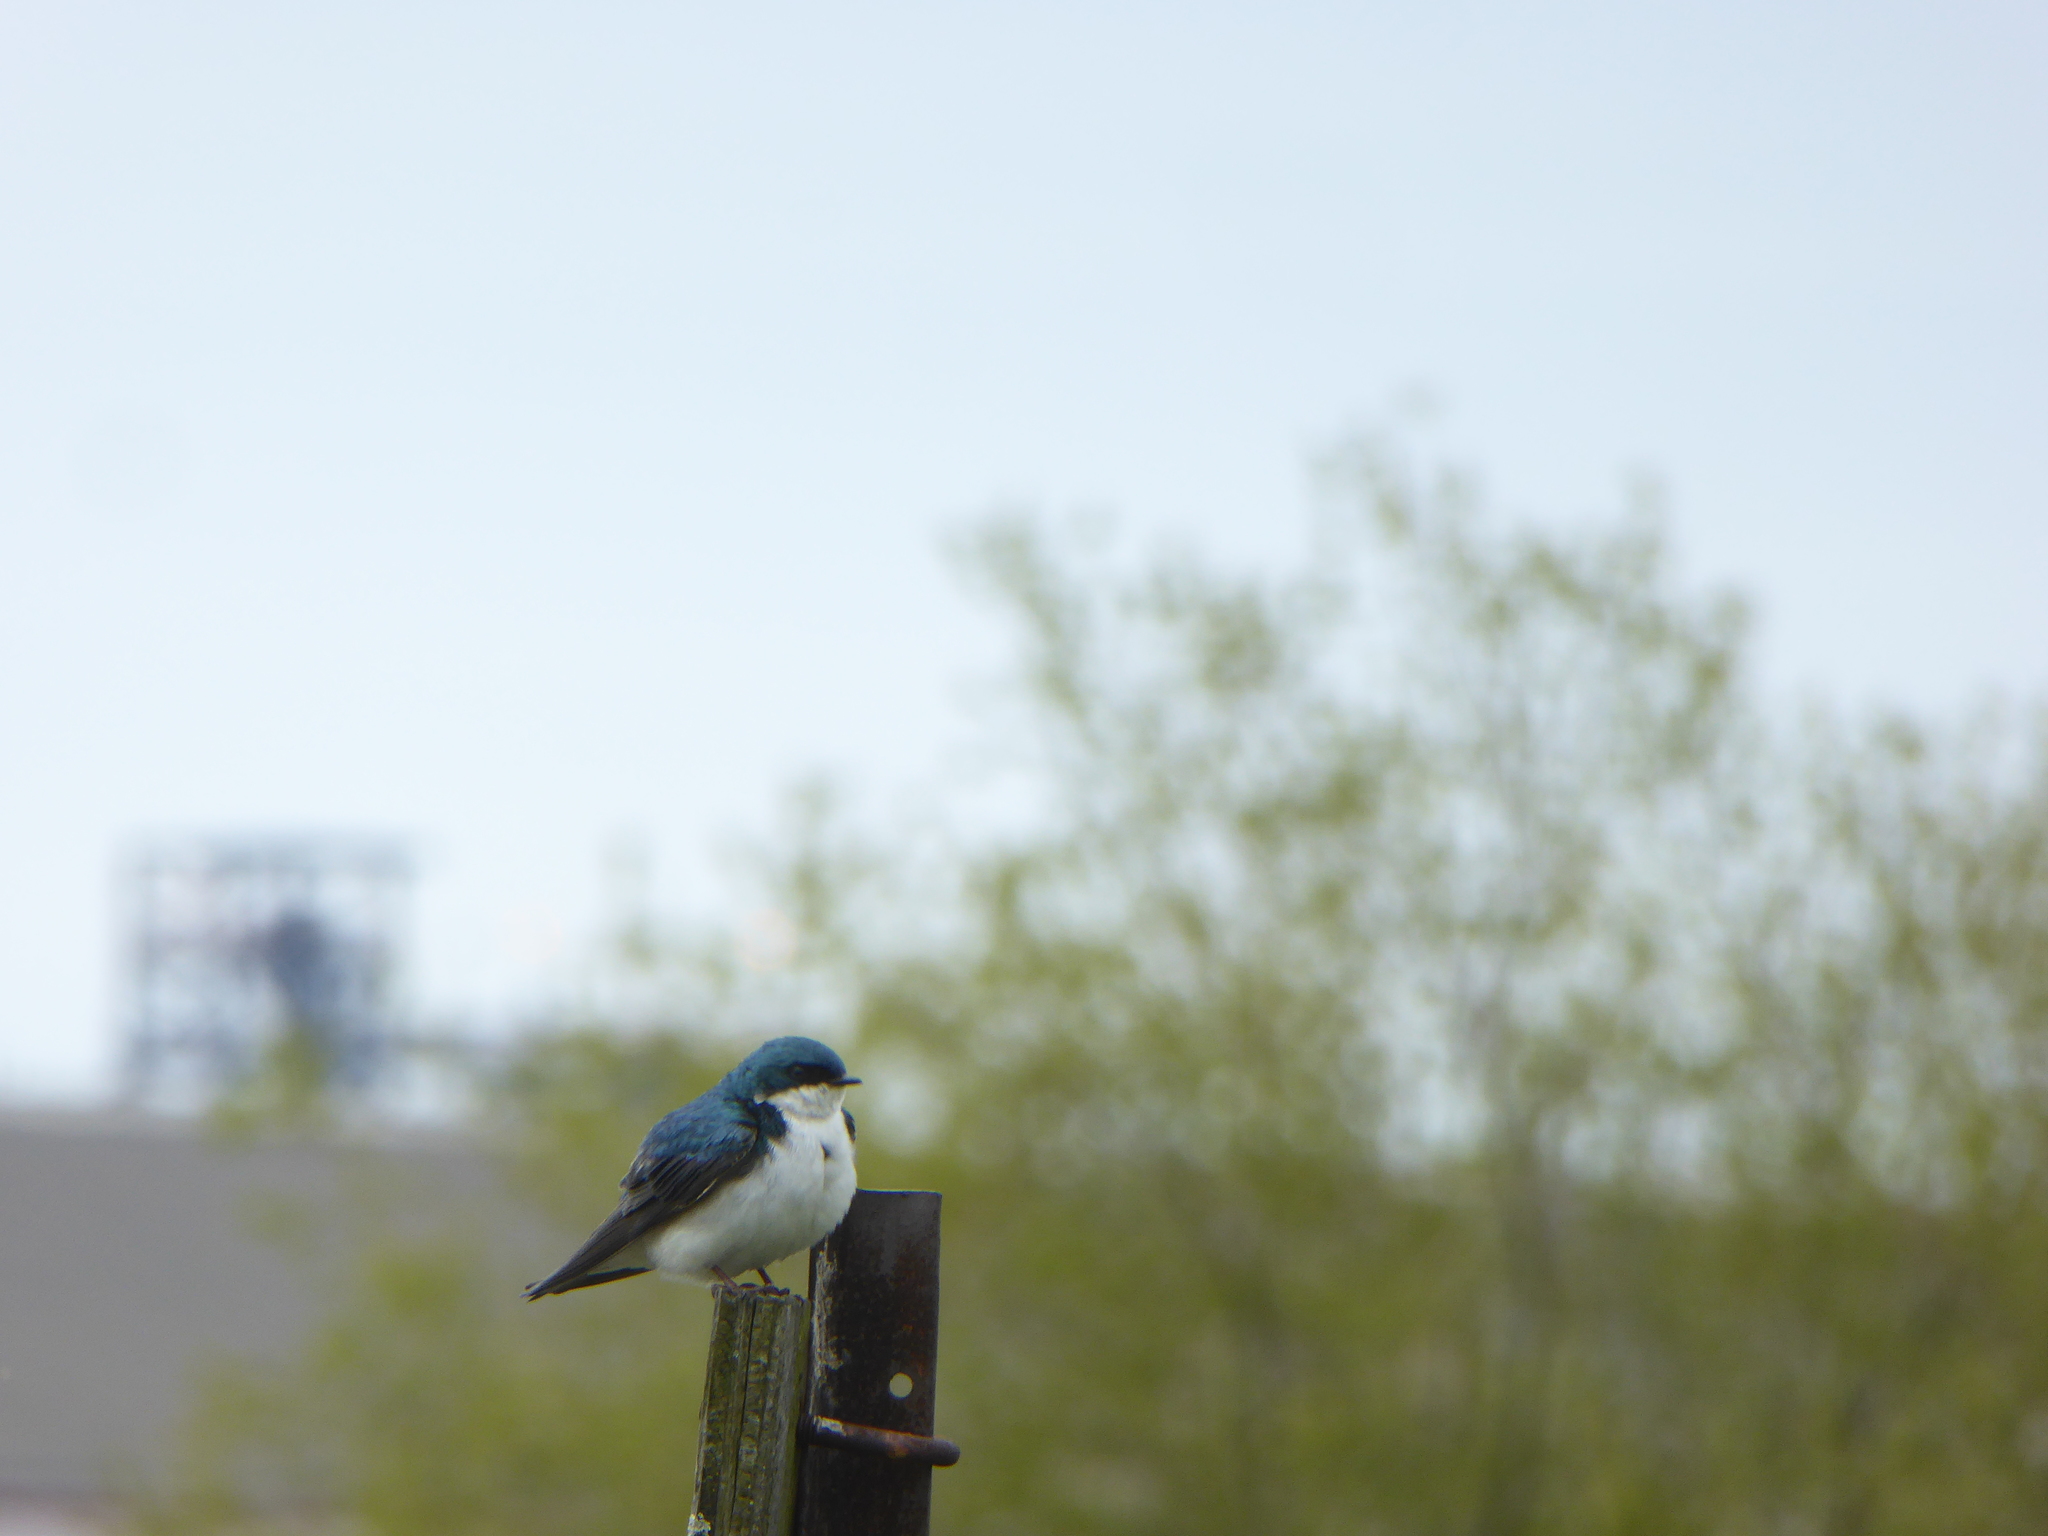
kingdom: Animalia
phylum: Chordata
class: Aves
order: Passeriformes
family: Hirundinidae
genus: Tachycineta
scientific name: Tachycineta bicolor
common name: Tree swallow
